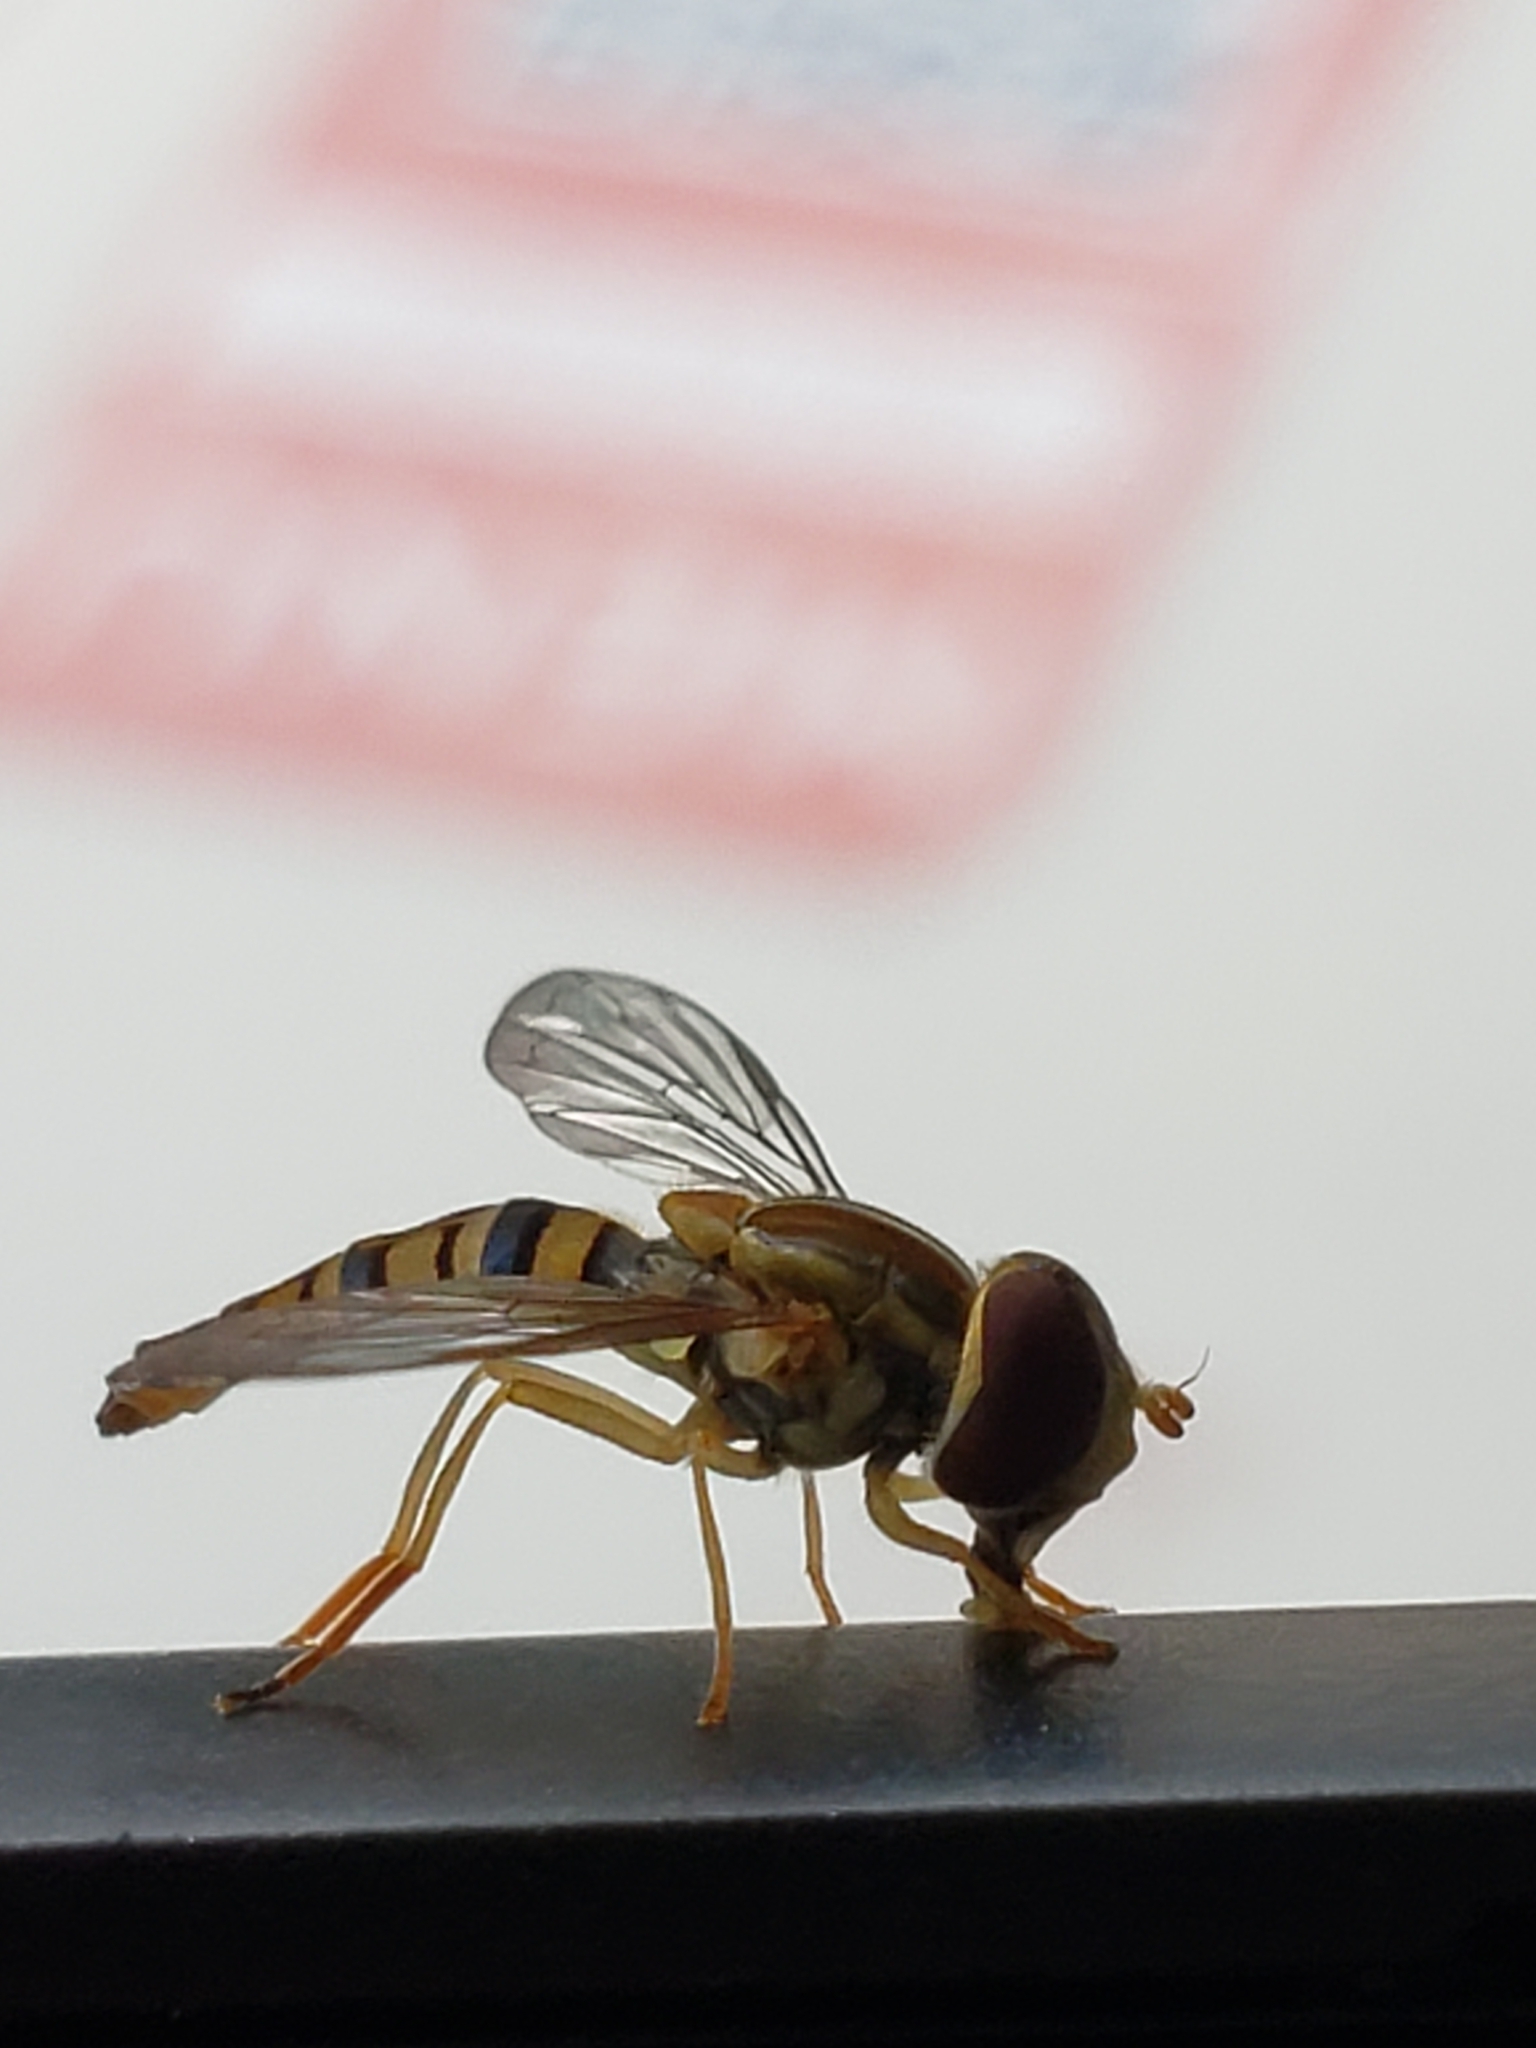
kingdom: Animalia
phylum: Arthropoda
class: Insecta
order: Diptera
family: Syrphidae
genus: Toxomerus
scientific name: Toxomerus politus
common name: Maize calligrapher
